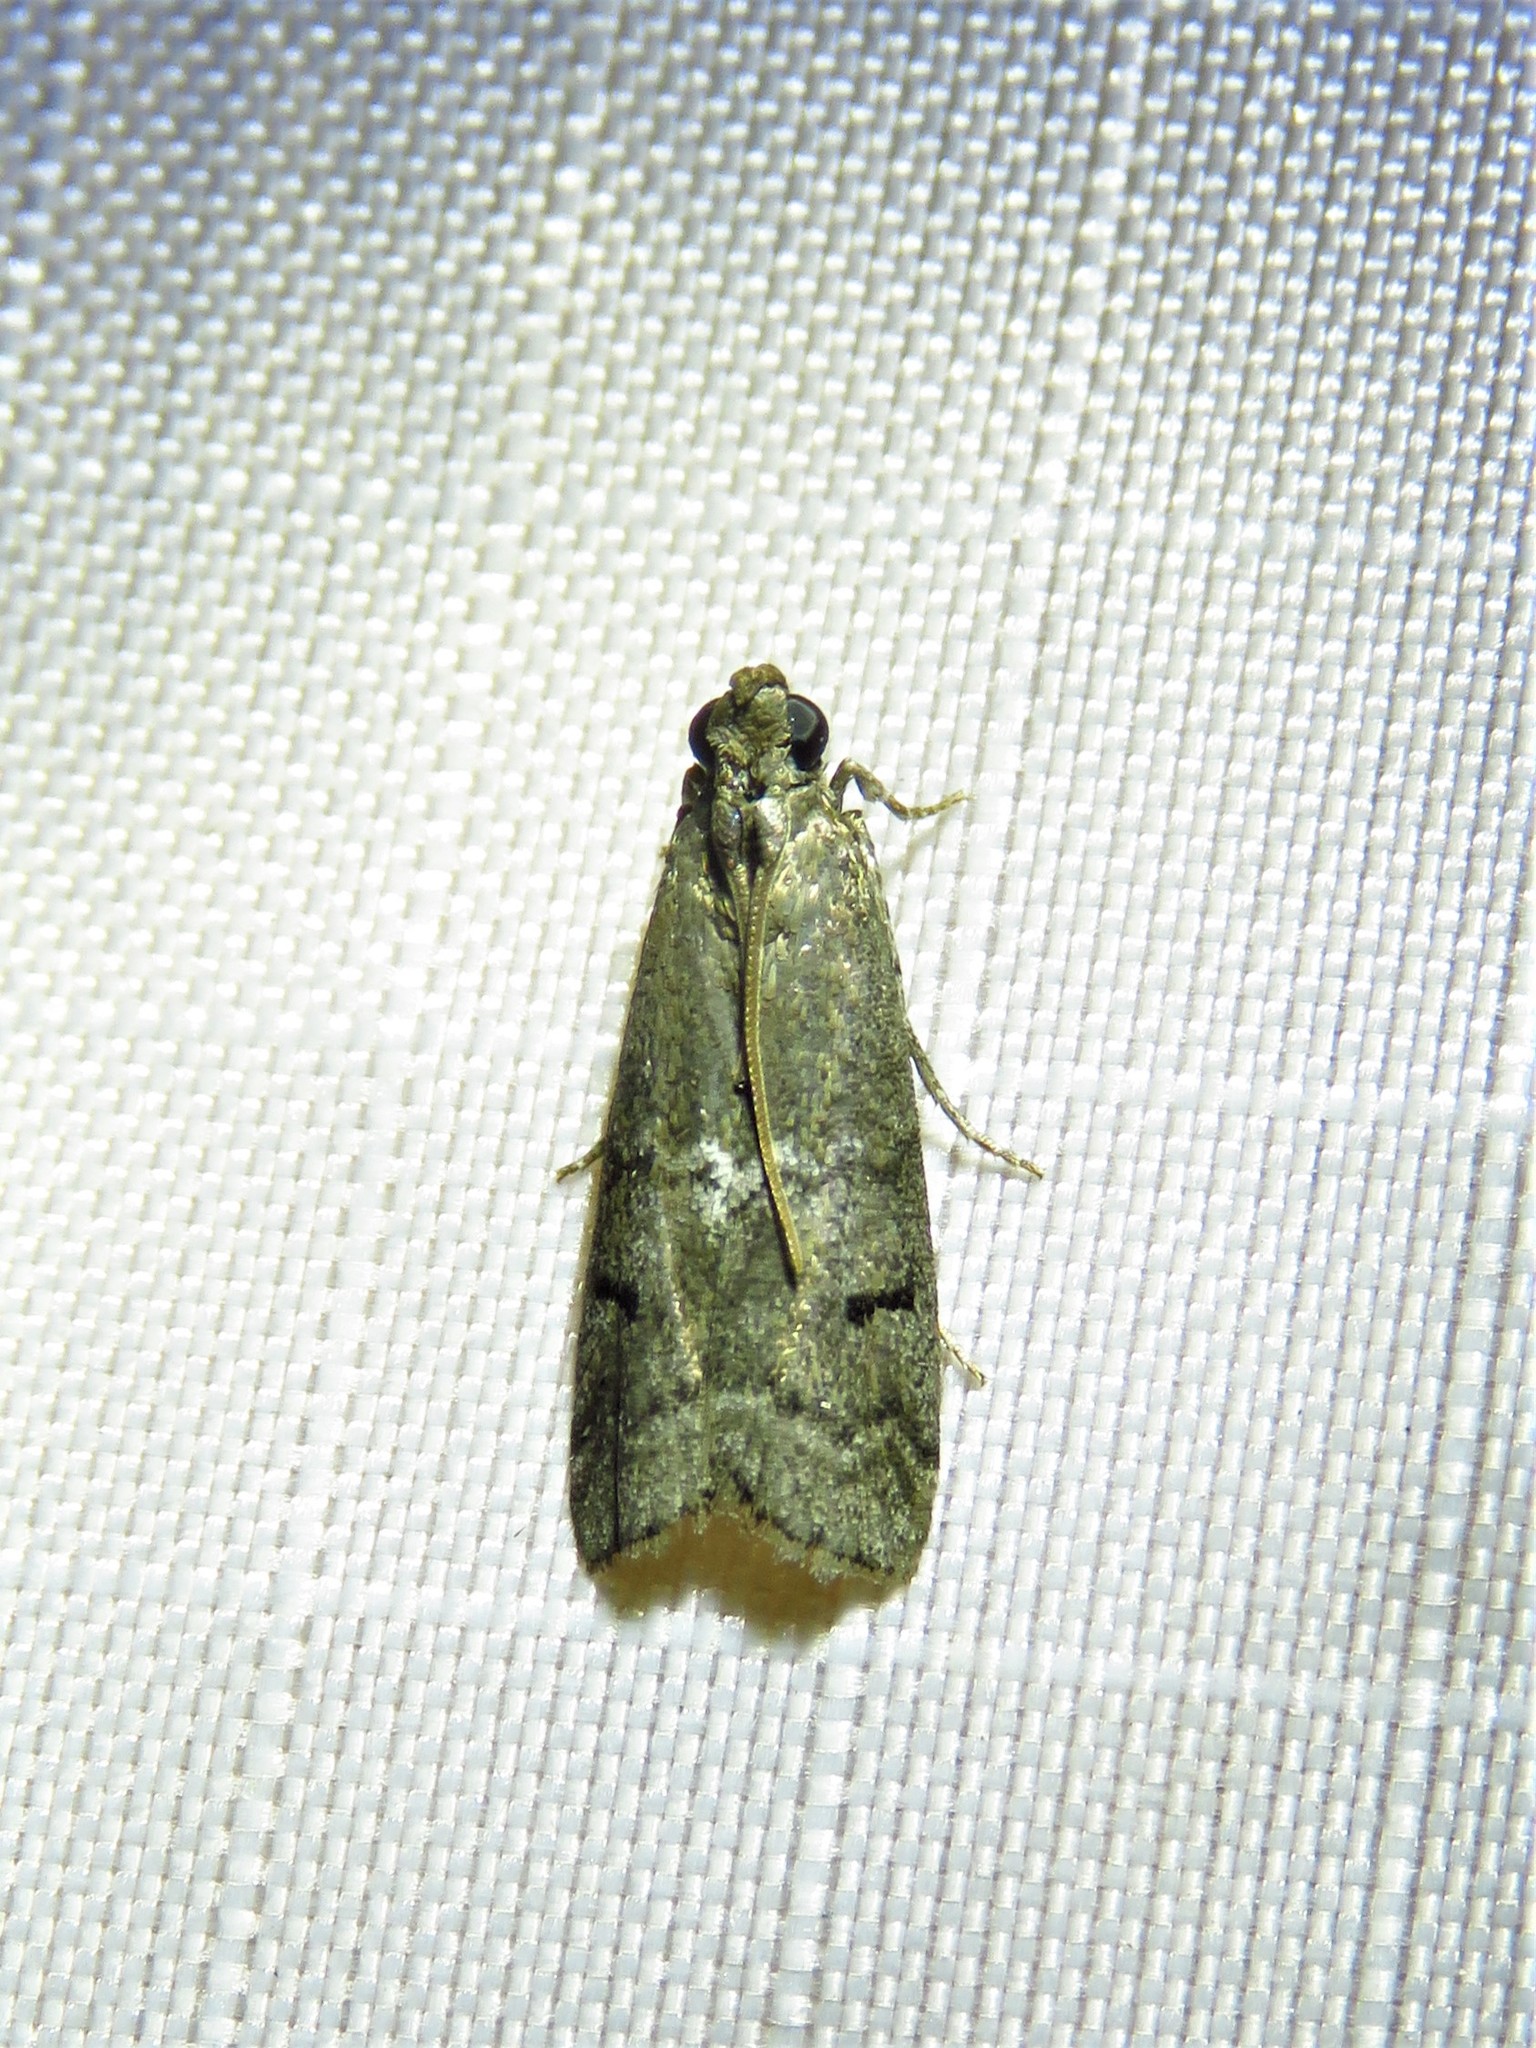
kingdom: Animalia
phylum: Arthropoda
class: Insecta
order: Lepidoptera
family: Pyralidae
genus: Ancylosis
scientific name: Ancylosis Canarsia ulmiarrosorella
